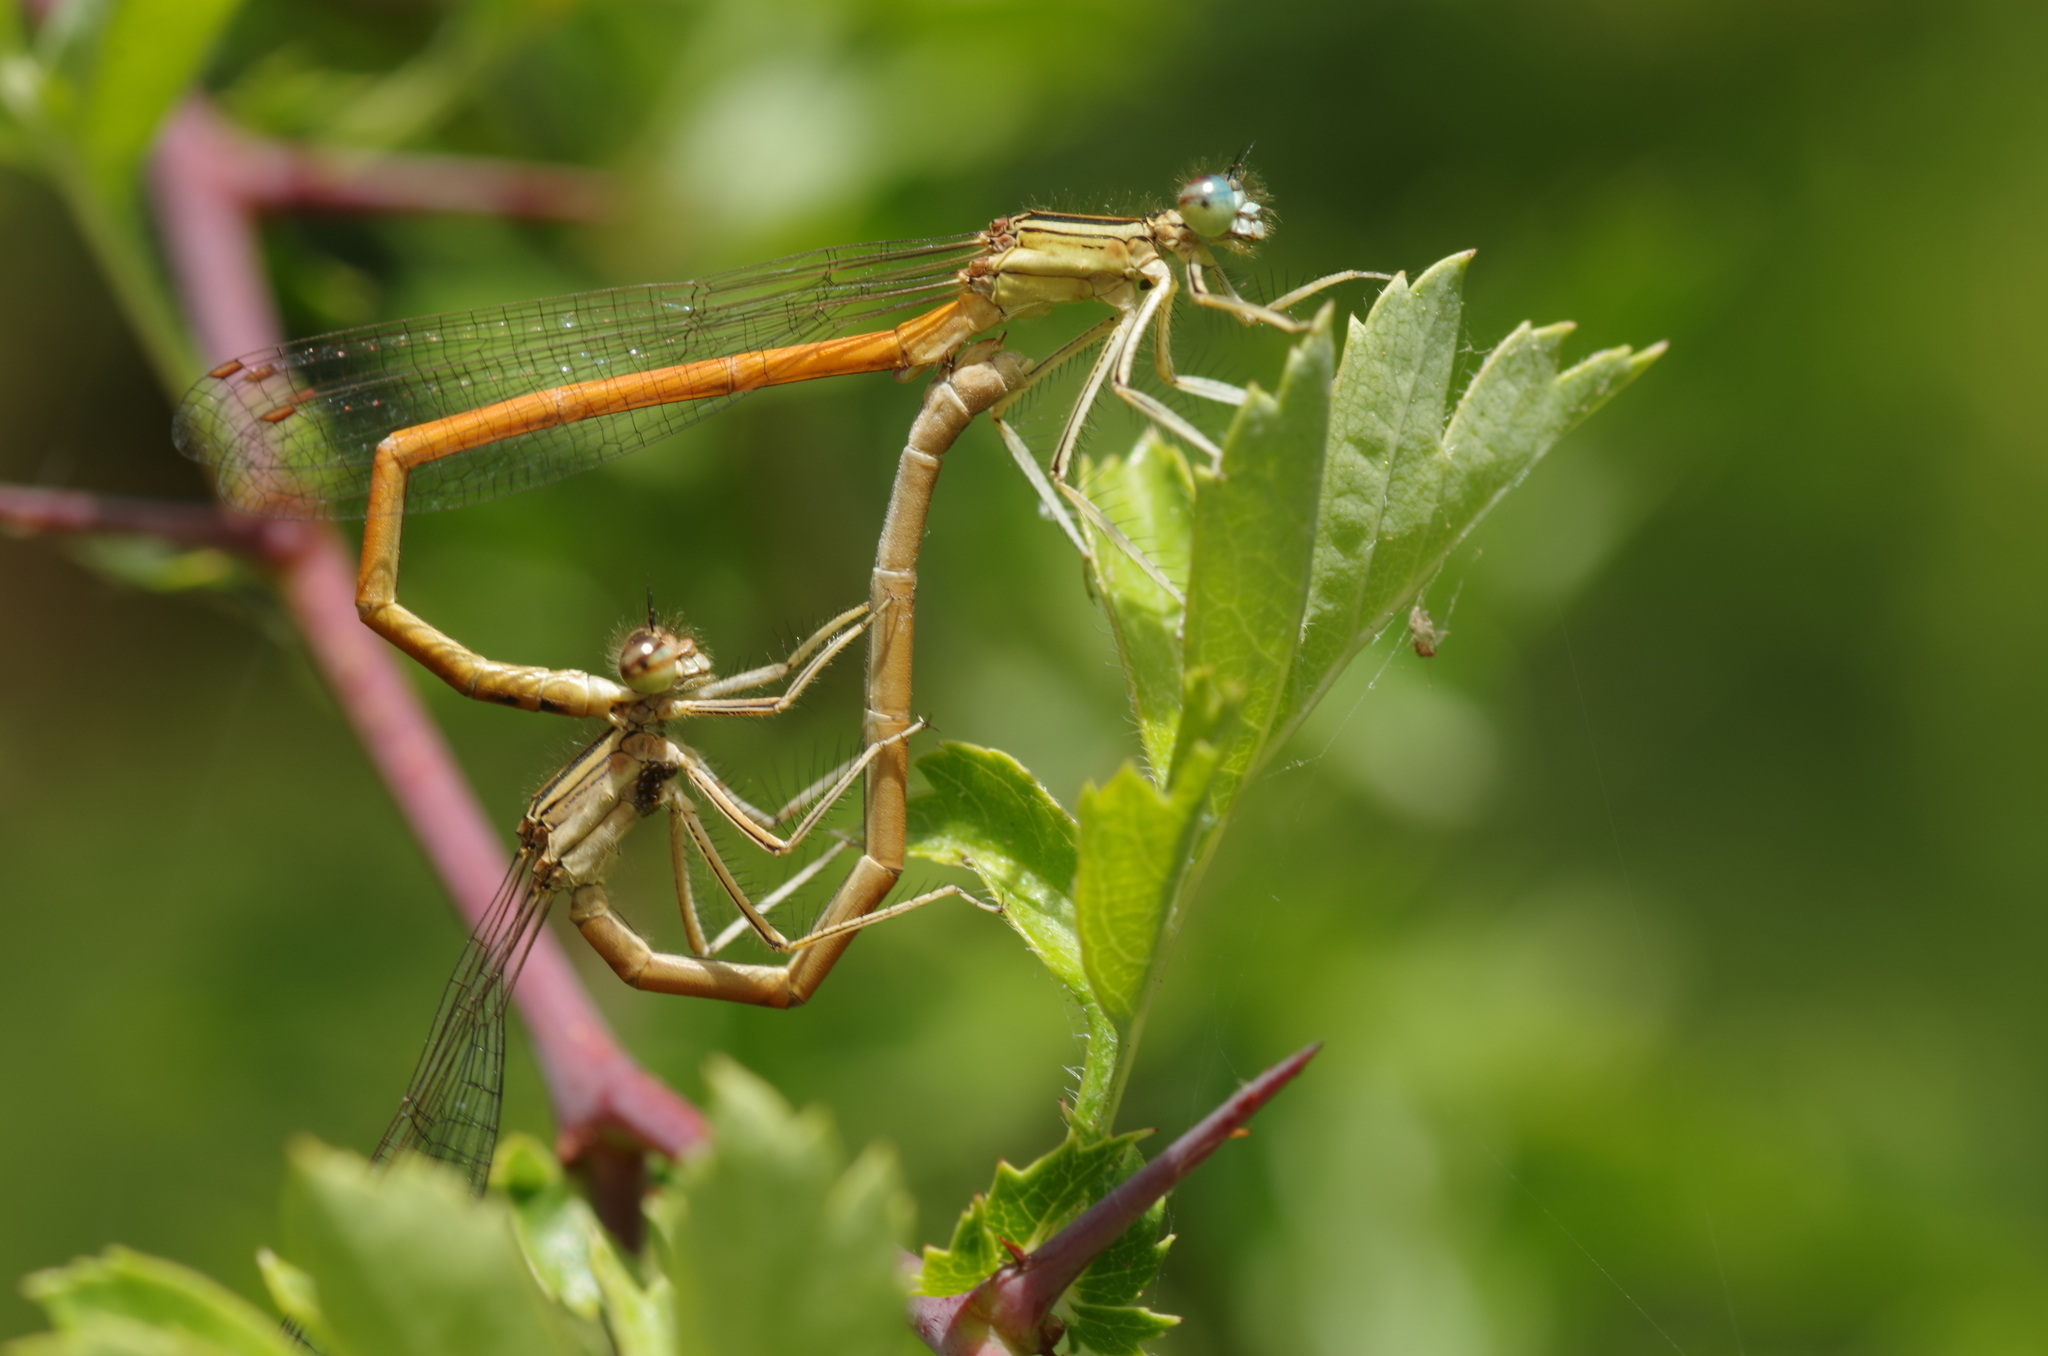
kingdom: Animalia
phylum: Arthropoda
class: Insecta
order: Odonata
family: Platycnemididae
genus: Platycnemis
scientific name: Platycnemis acutipennis
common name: Orange featherleg
